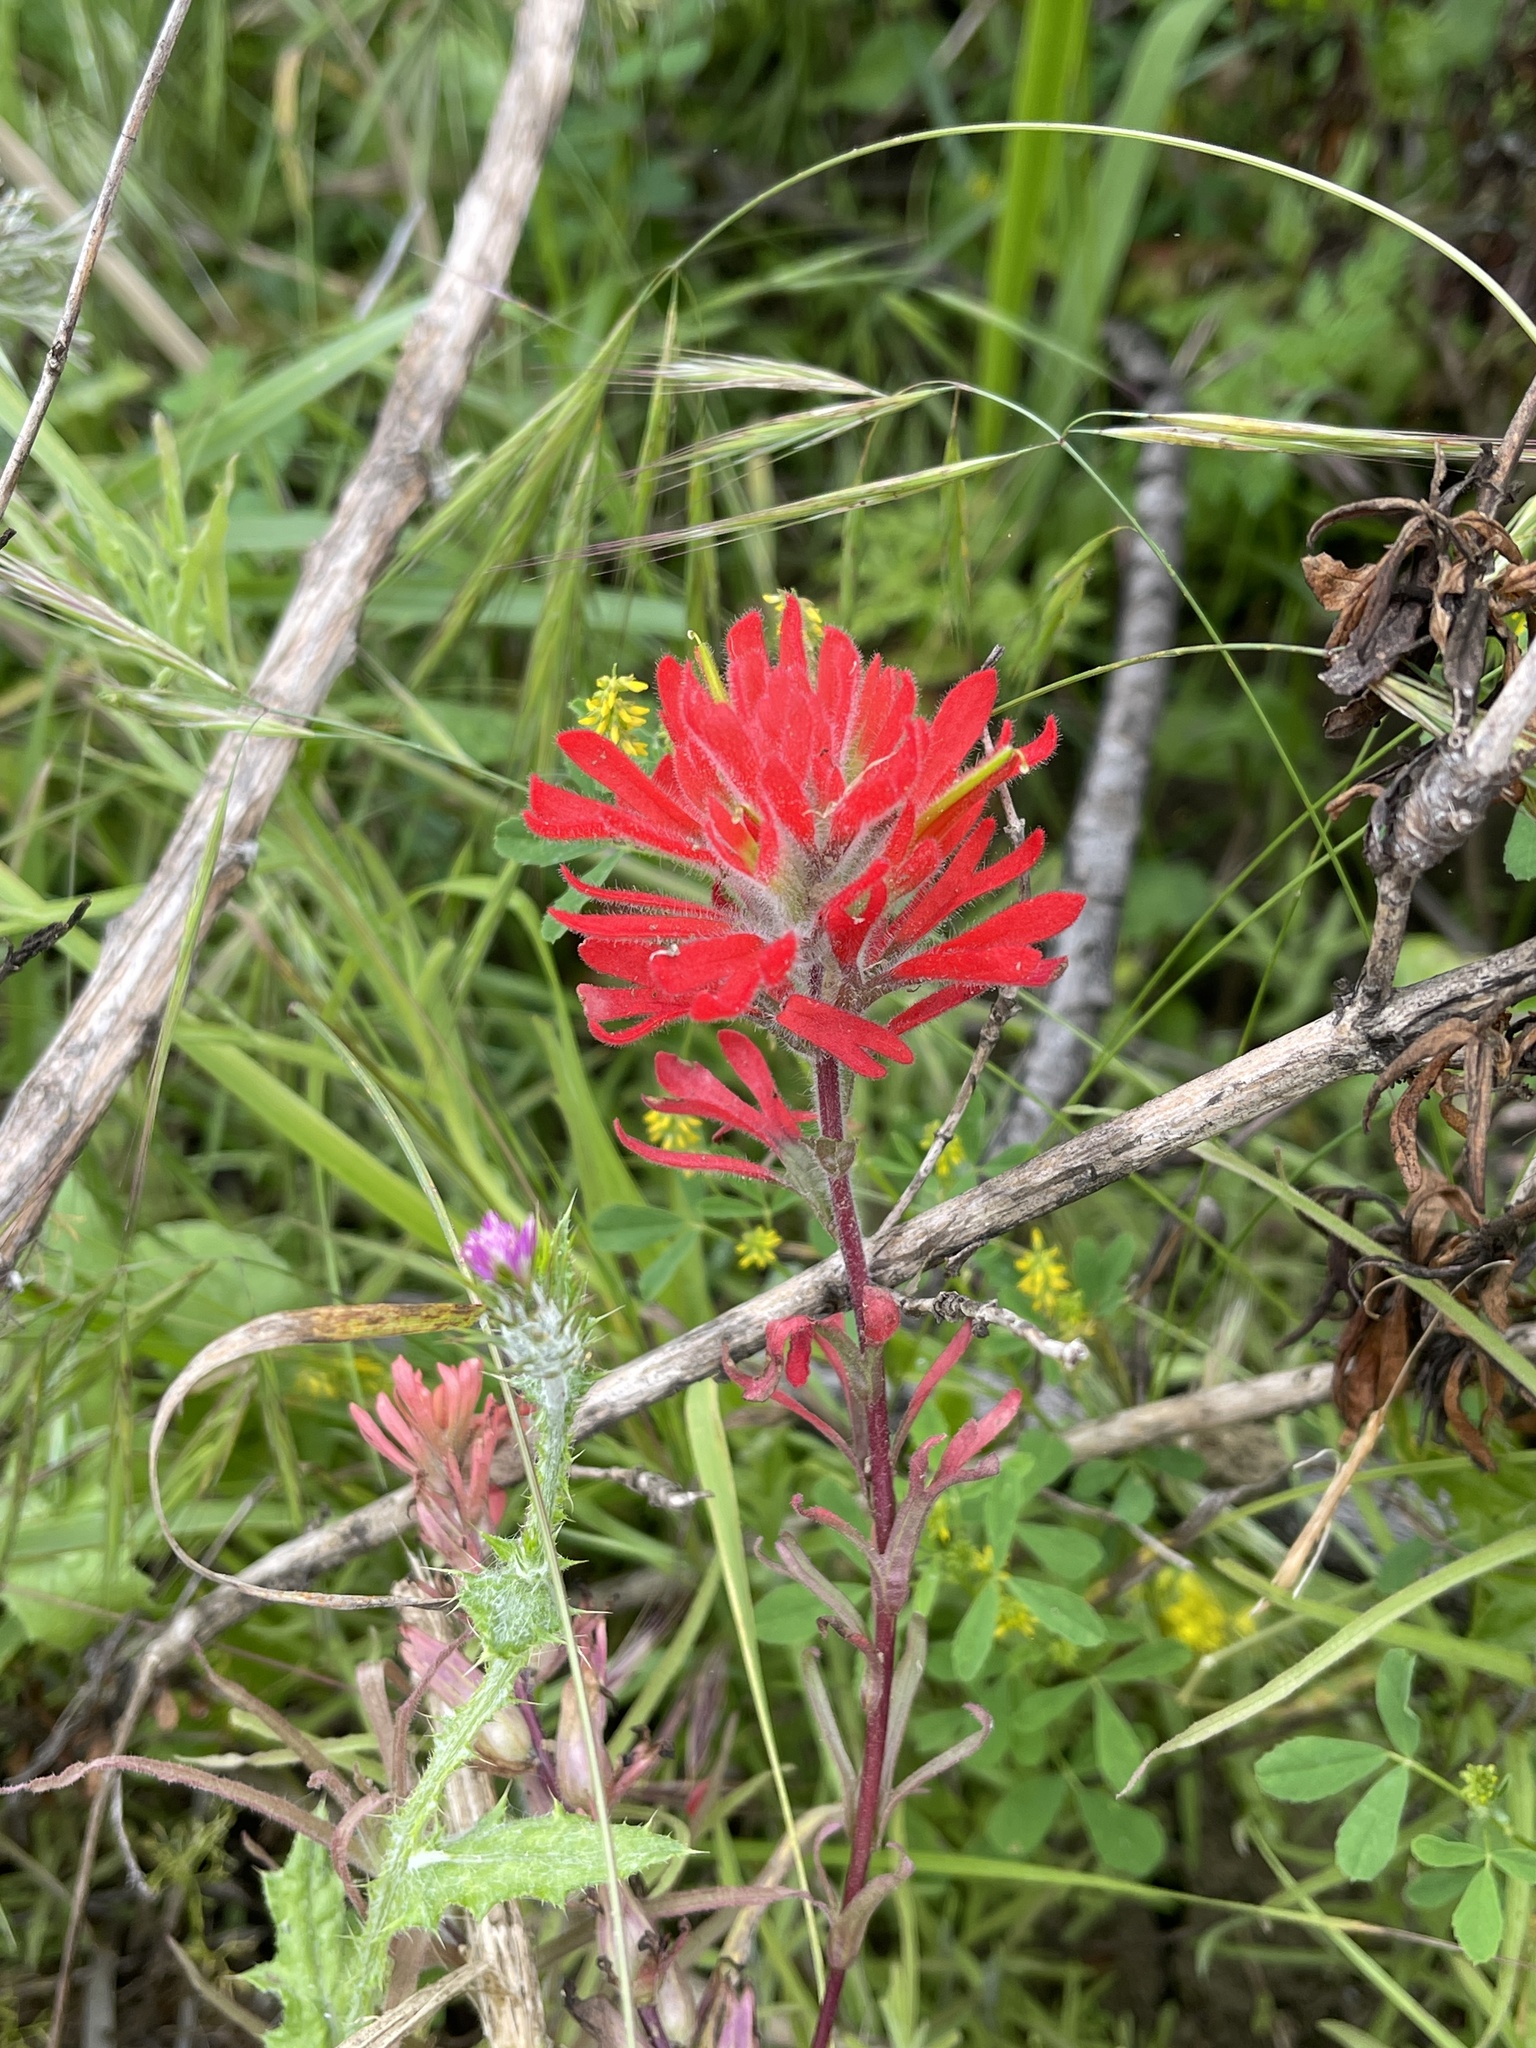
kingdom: Plantae
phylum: Tracheophyta
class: Magnoliopsida
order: Lamiales
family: Orobanchaceae
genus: Castilleja
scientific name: Castilleja affinis
